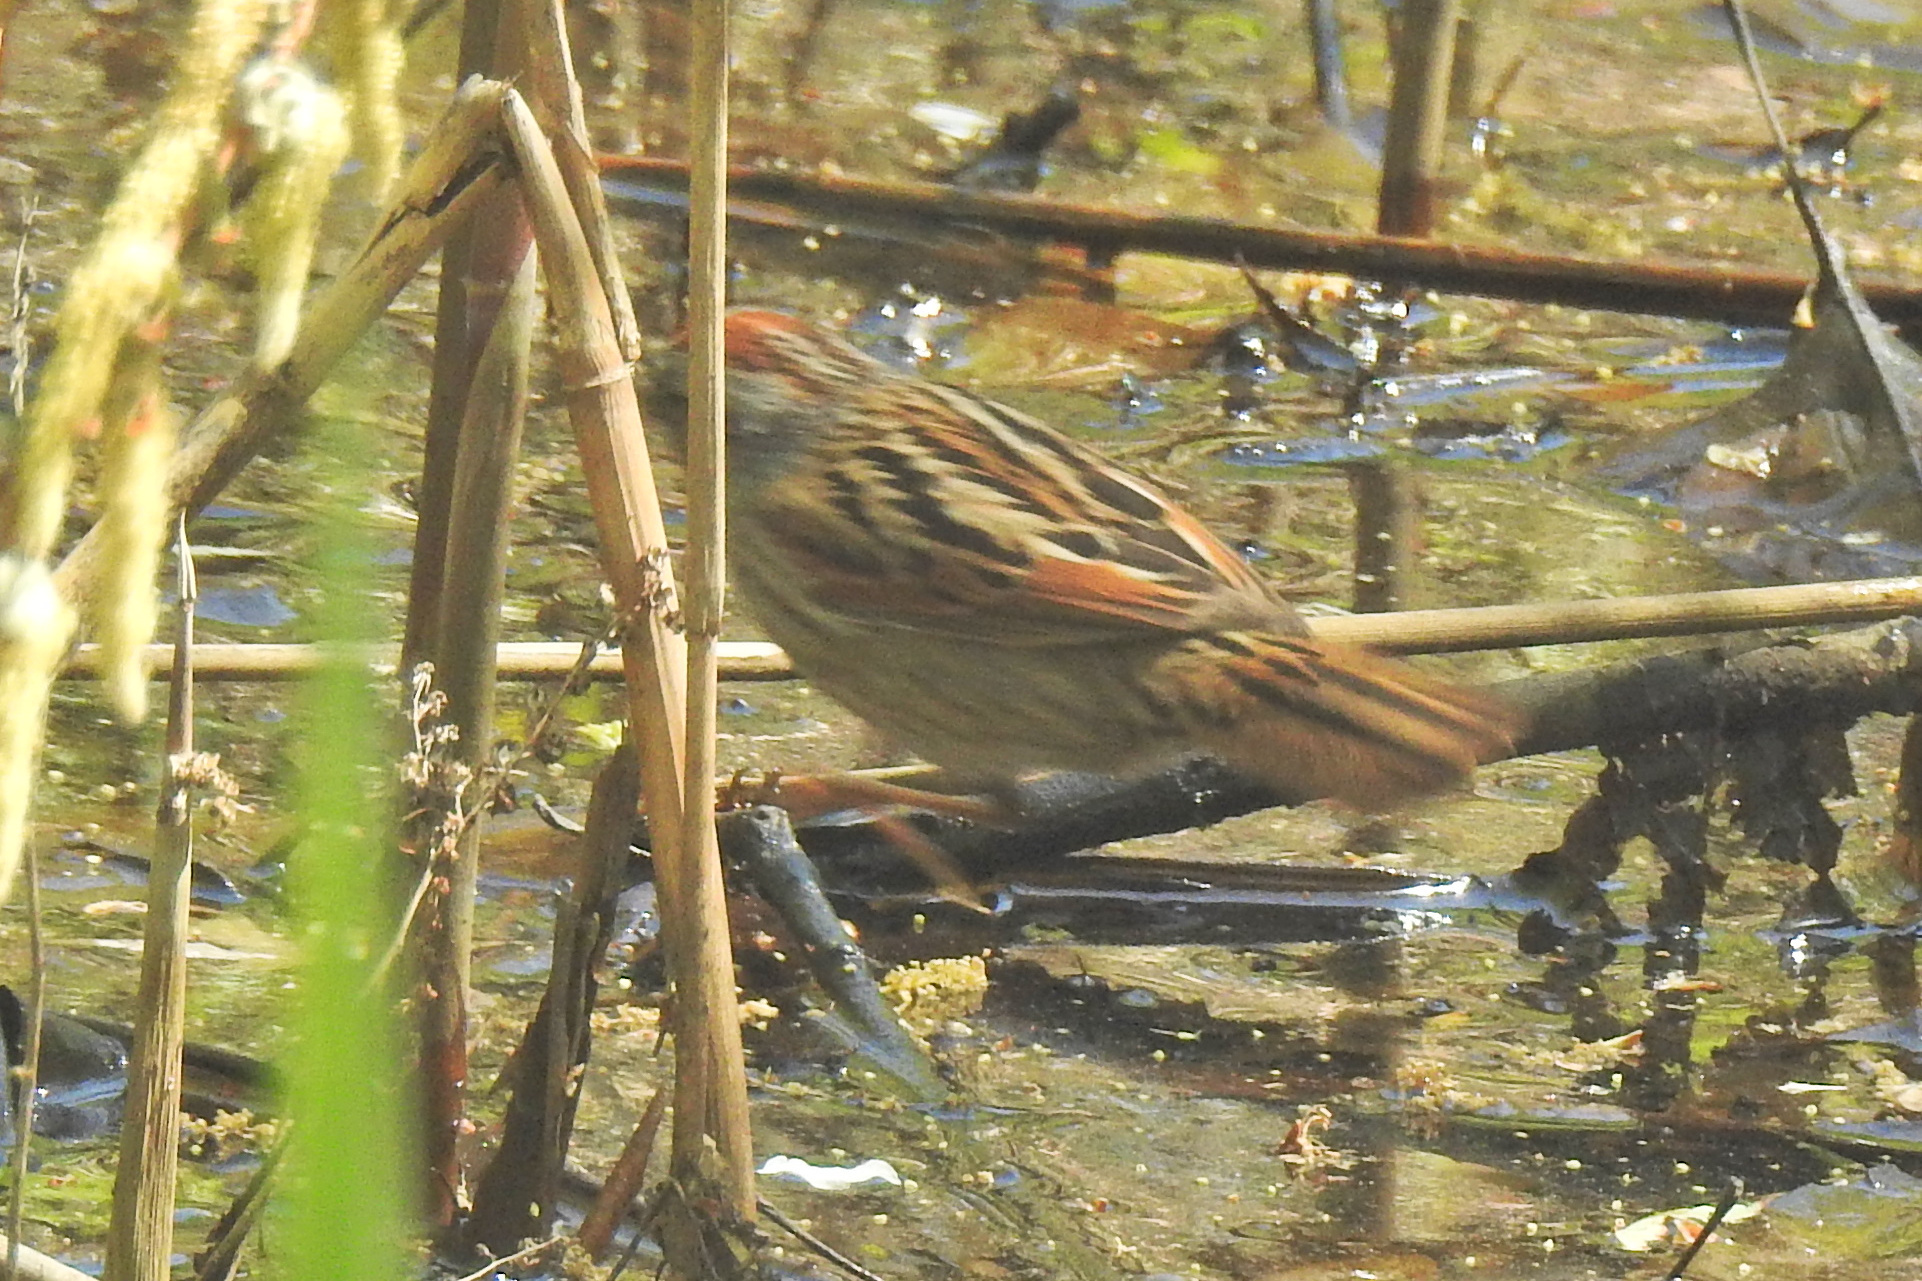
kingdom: Animalia
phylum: Chordata
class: Aves
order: Passeriformes
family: Passerellidae
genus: Melospiza
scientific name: Melospiza georgiana
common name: Swamp sparrow
